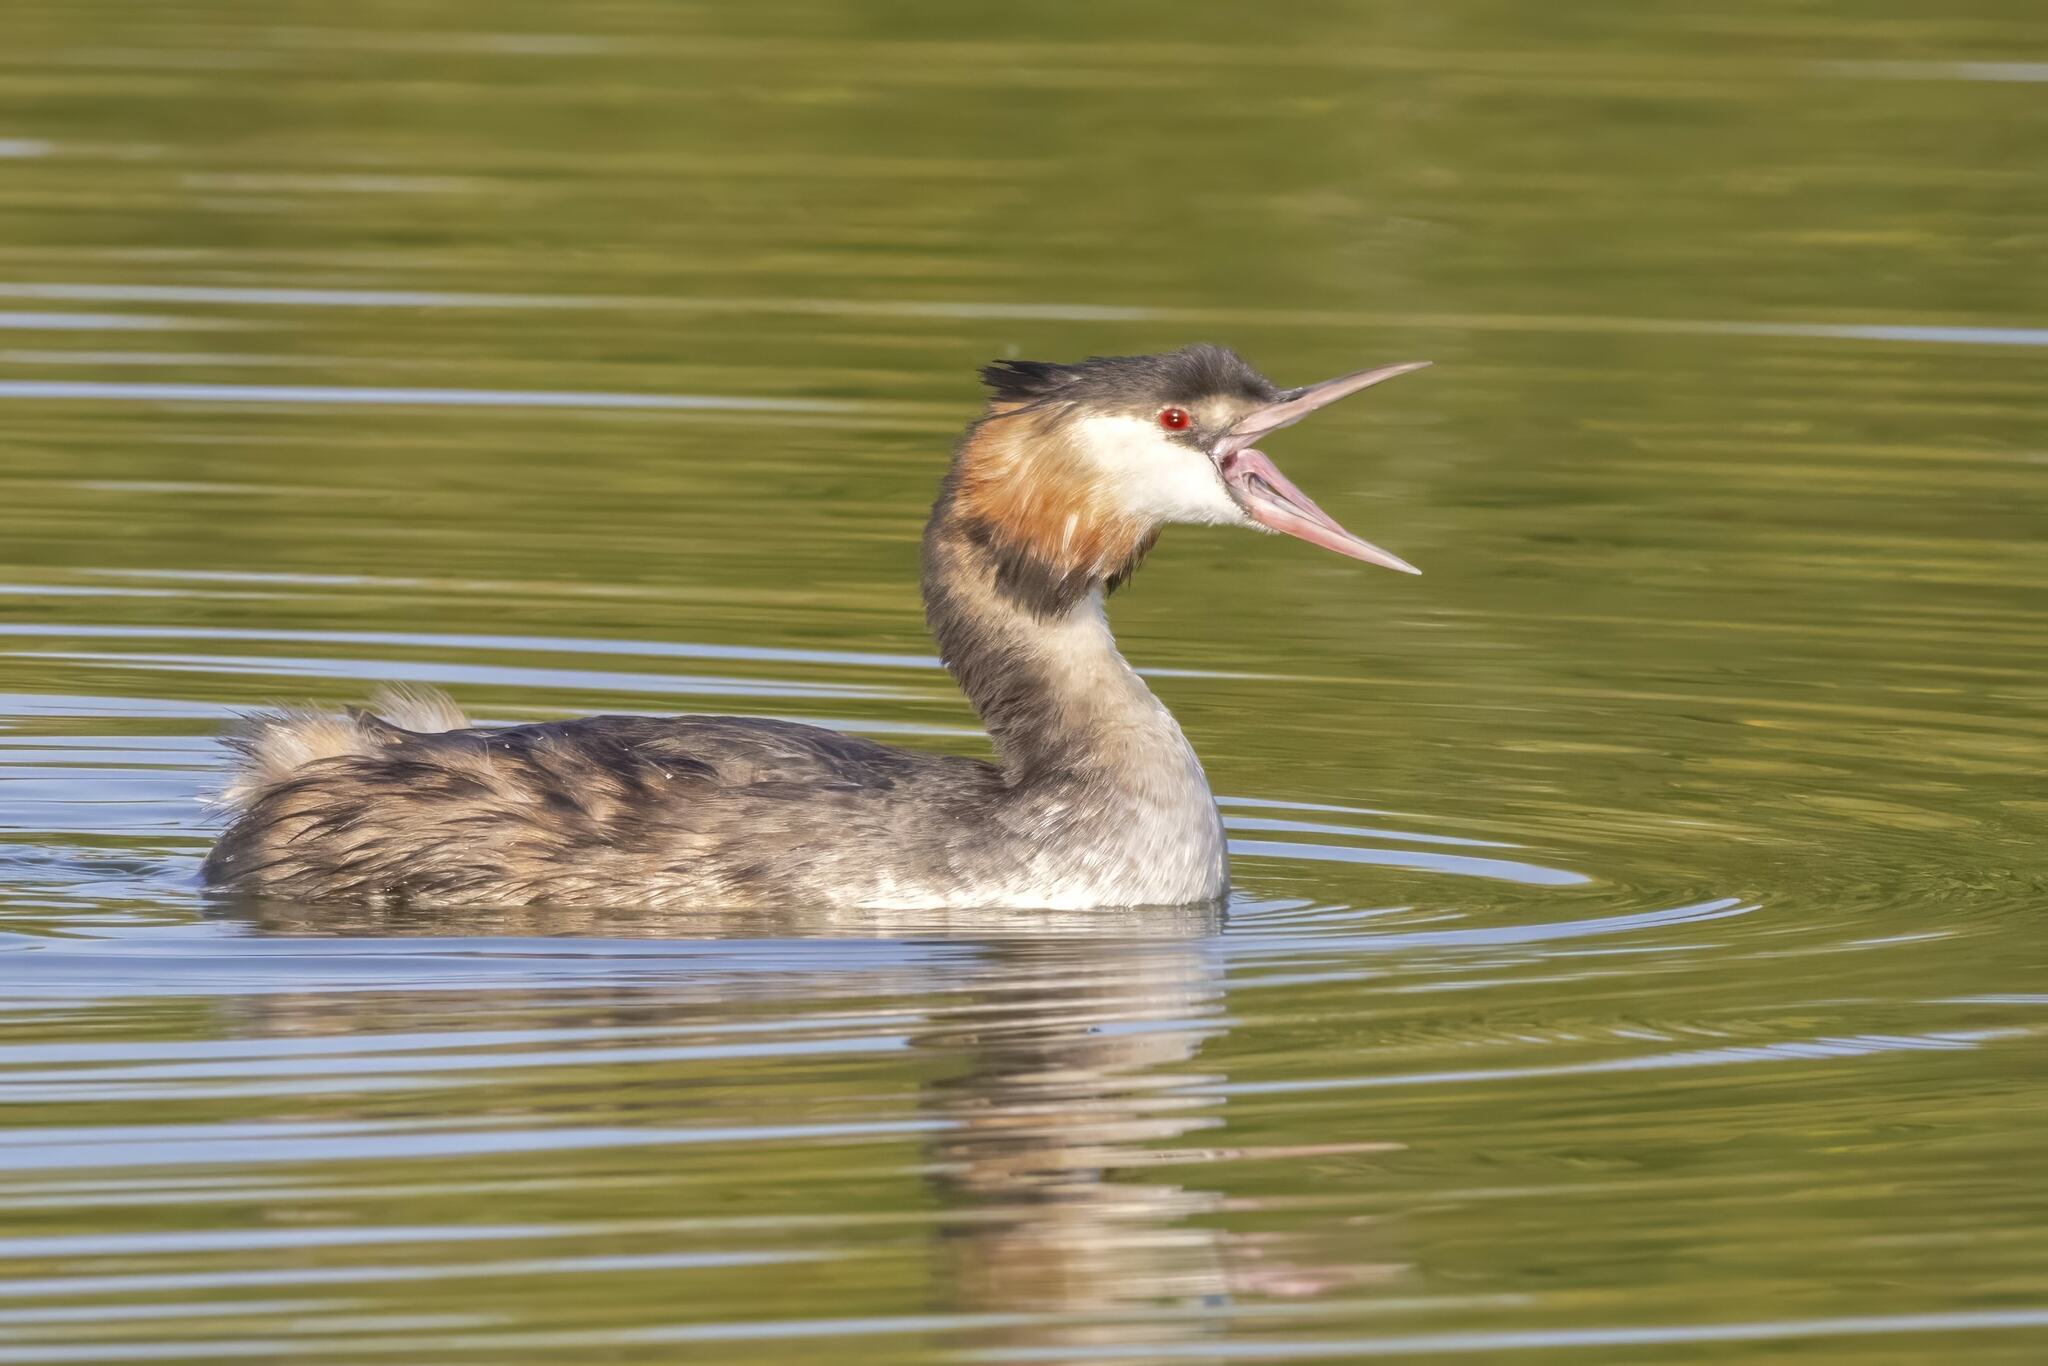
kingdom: Animalia
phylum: Chordata
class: Aves
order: Podicipediformes
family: Podicipedidae
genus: Podiceps
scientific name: Podiceps cristatus
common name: Great crested grebe
